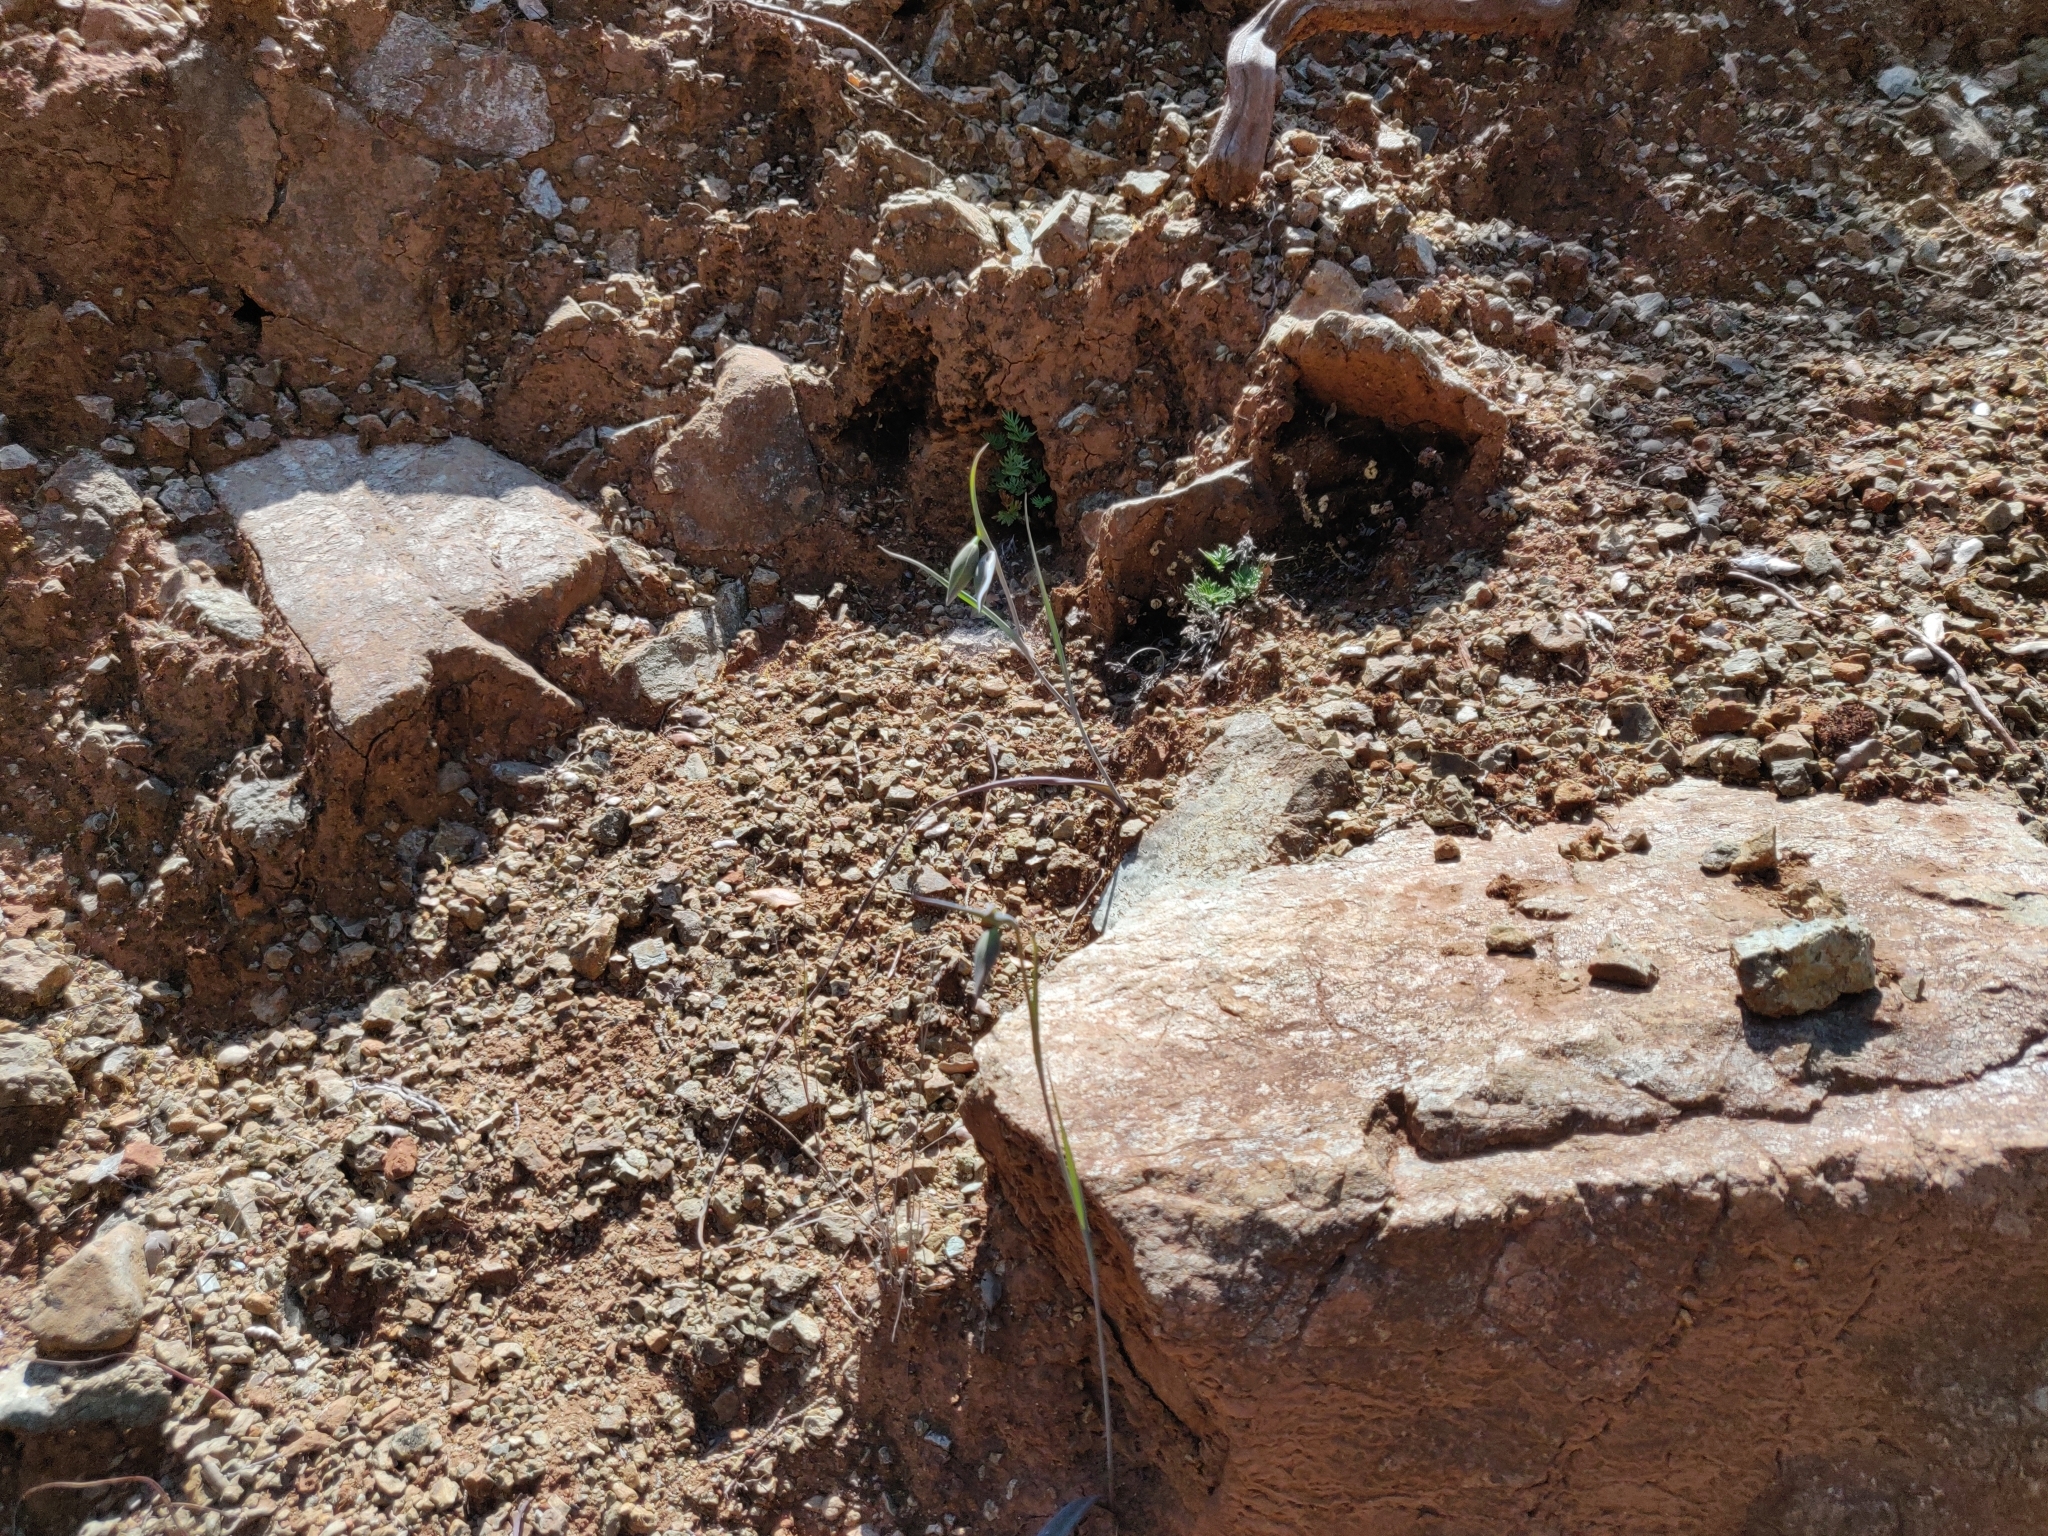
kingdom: Plantae
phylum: Tracheophyta
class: Liliopsida
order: Liliales
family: Liliaceae
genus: Calochortus
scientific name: Calochortus raichei
